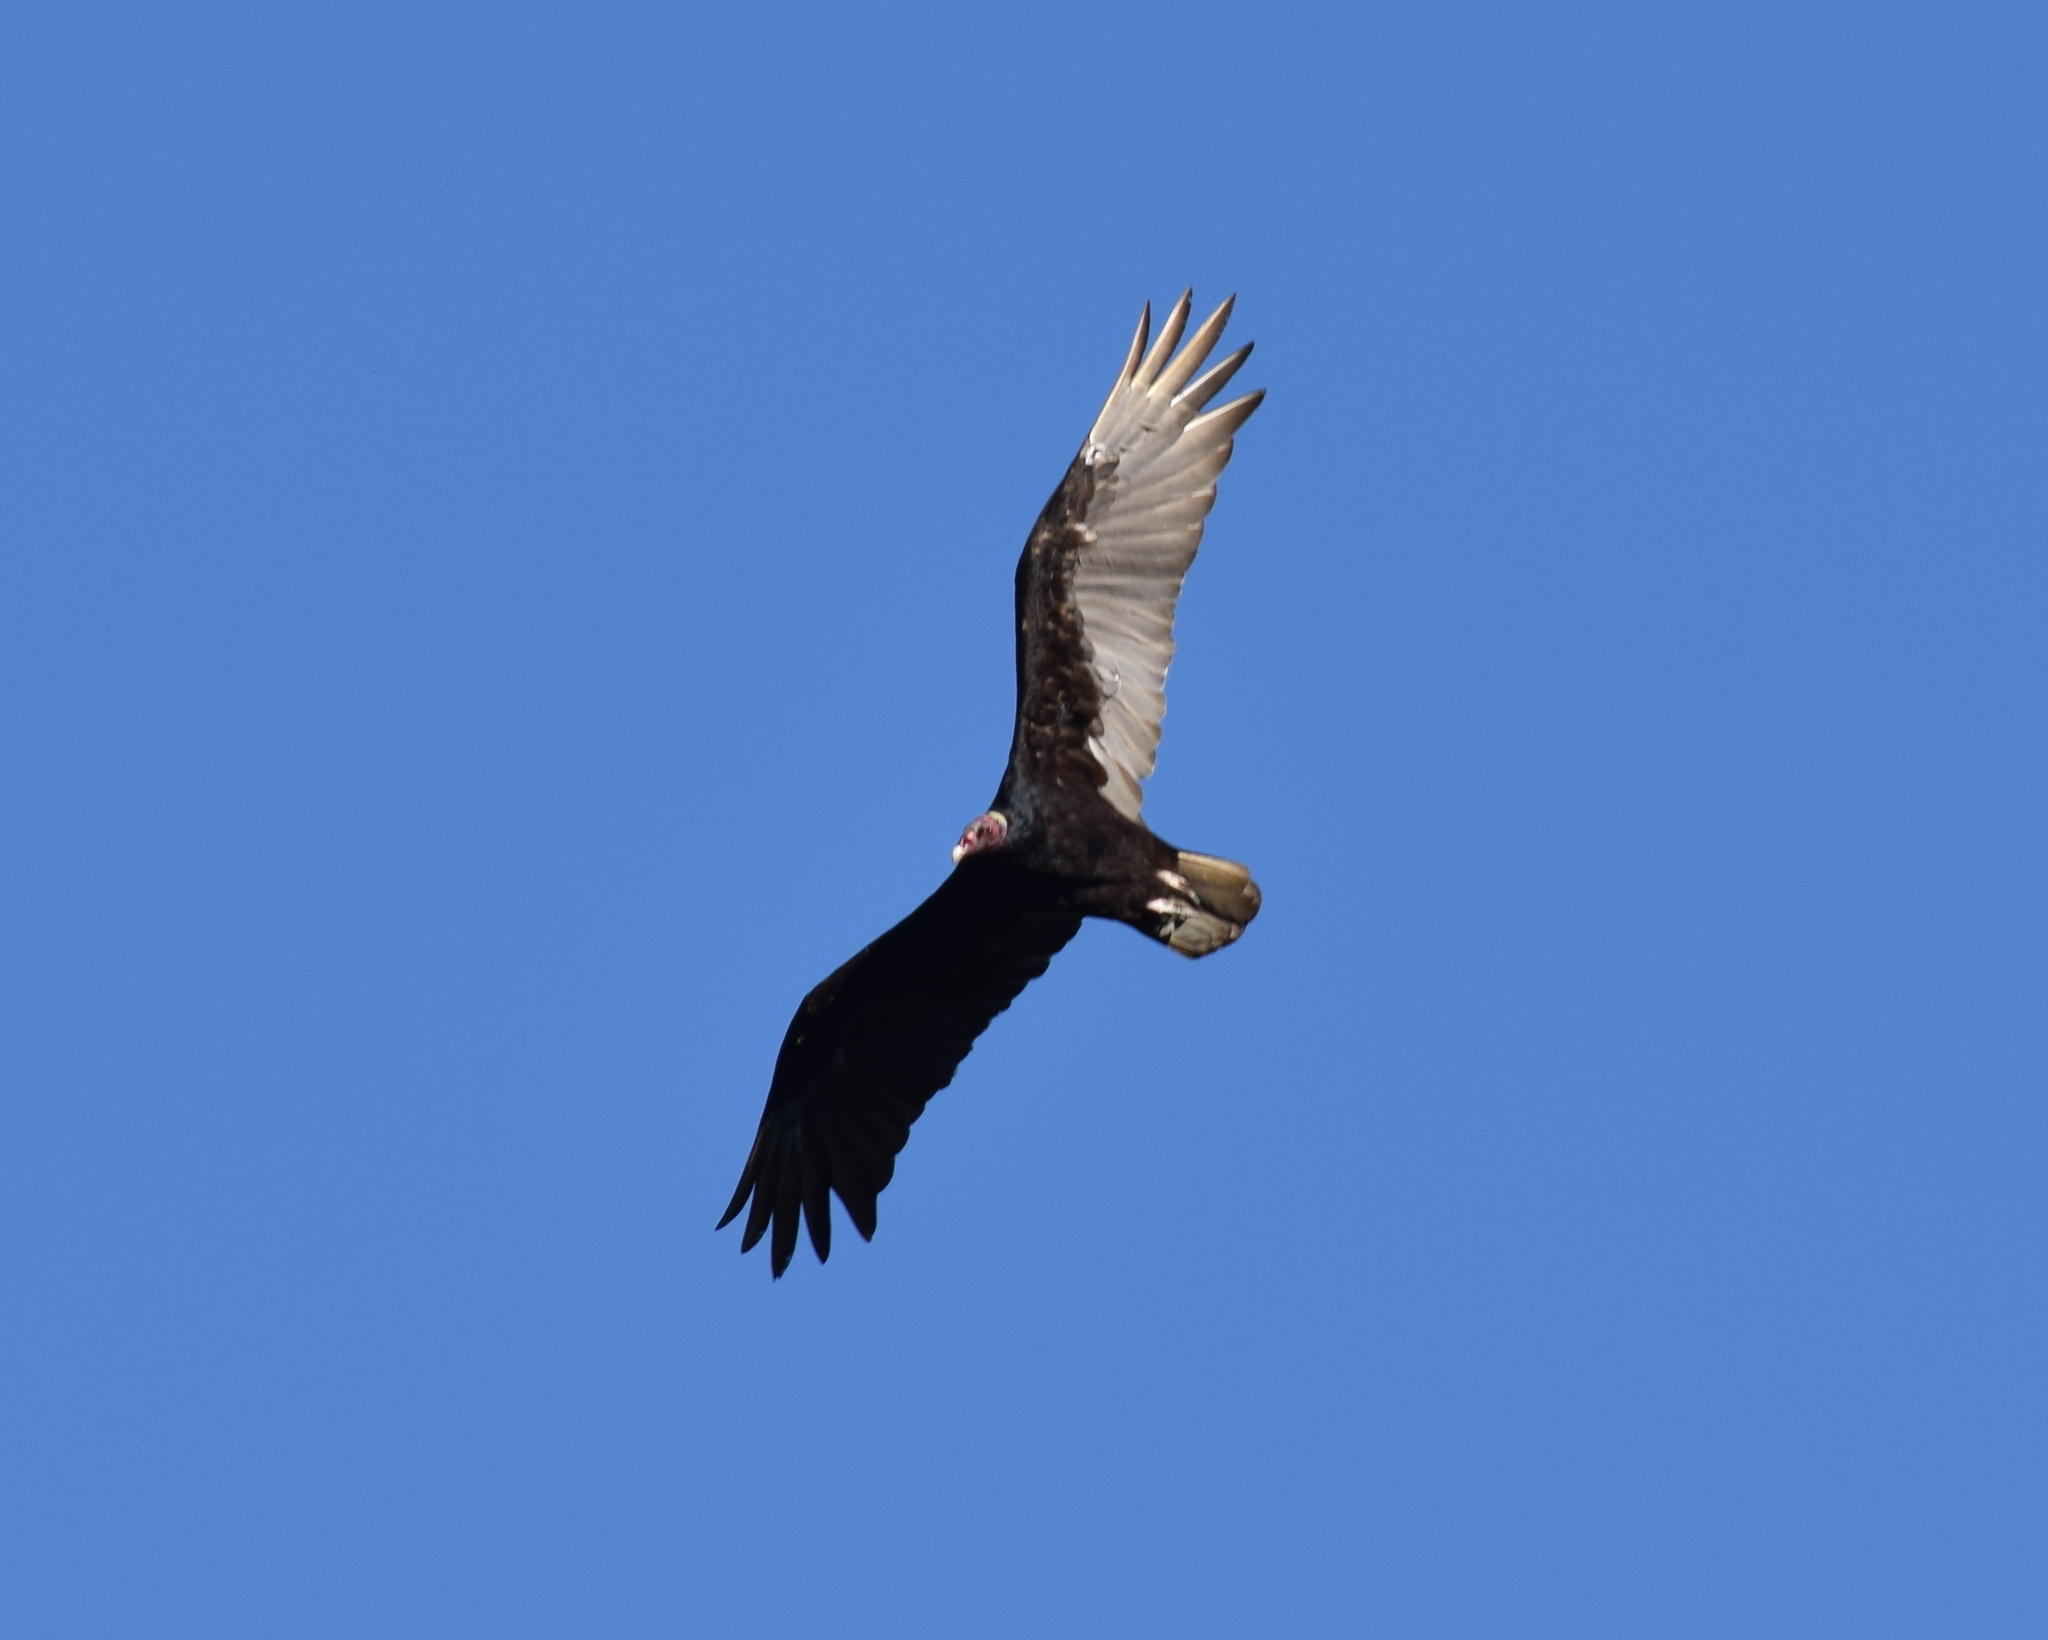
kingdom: Animalia
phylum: Chordata
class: Aves
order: Accipitriformes
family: Cathartidae
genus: Cathartes
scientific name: Cathartes aura
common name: Turkey vulture
